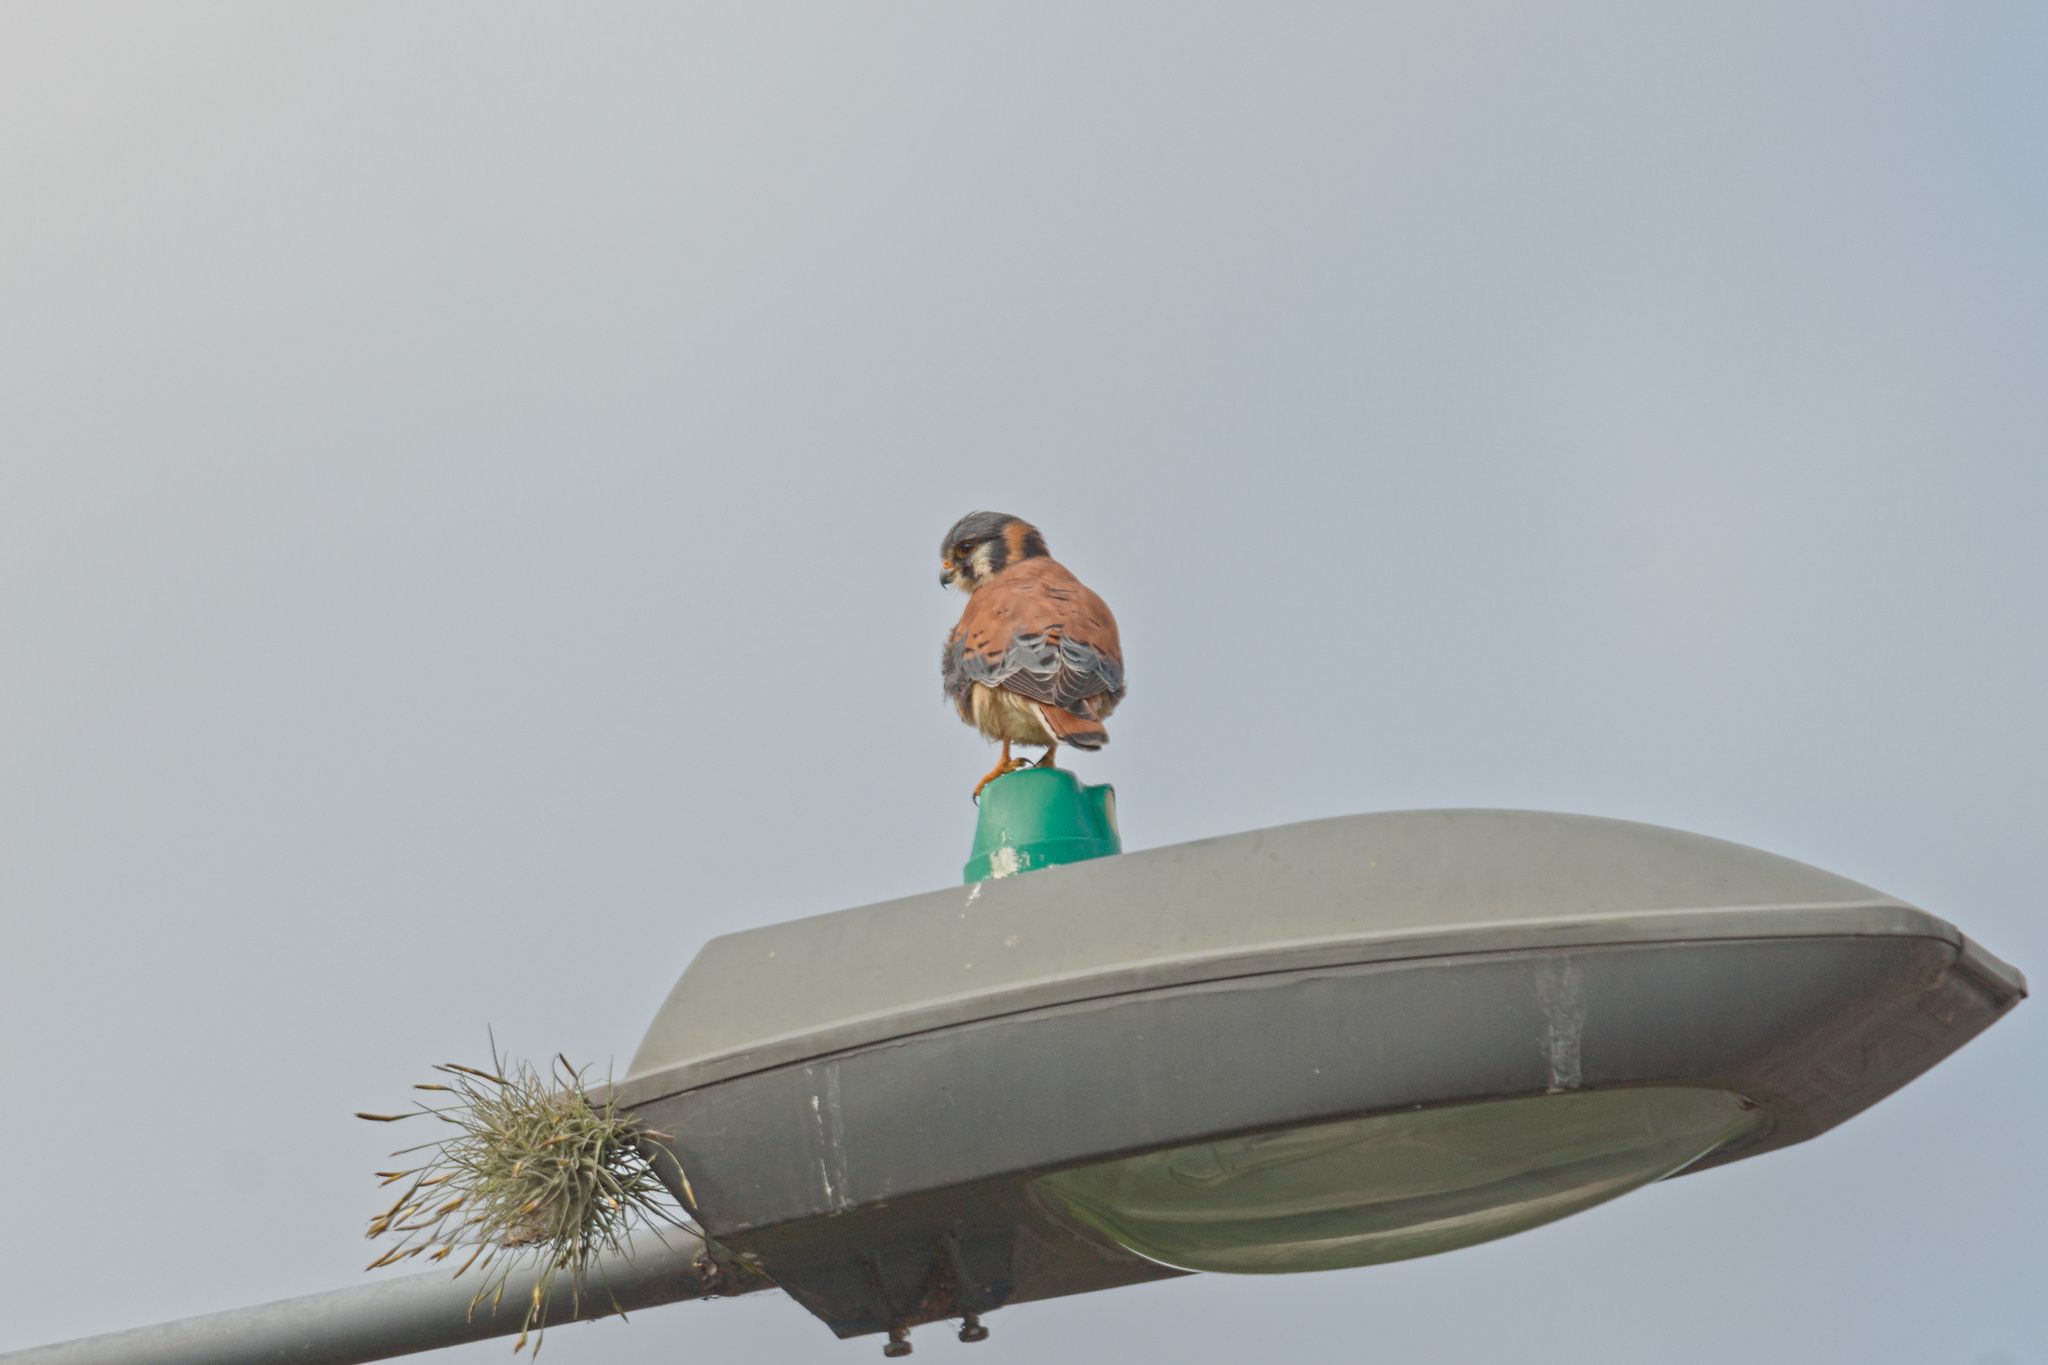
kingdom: Animalia
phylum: Chordata
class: Aves
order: Falconiformes
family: Falconidae
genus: Falco
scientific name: Falco sparverius
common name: American kestrel
